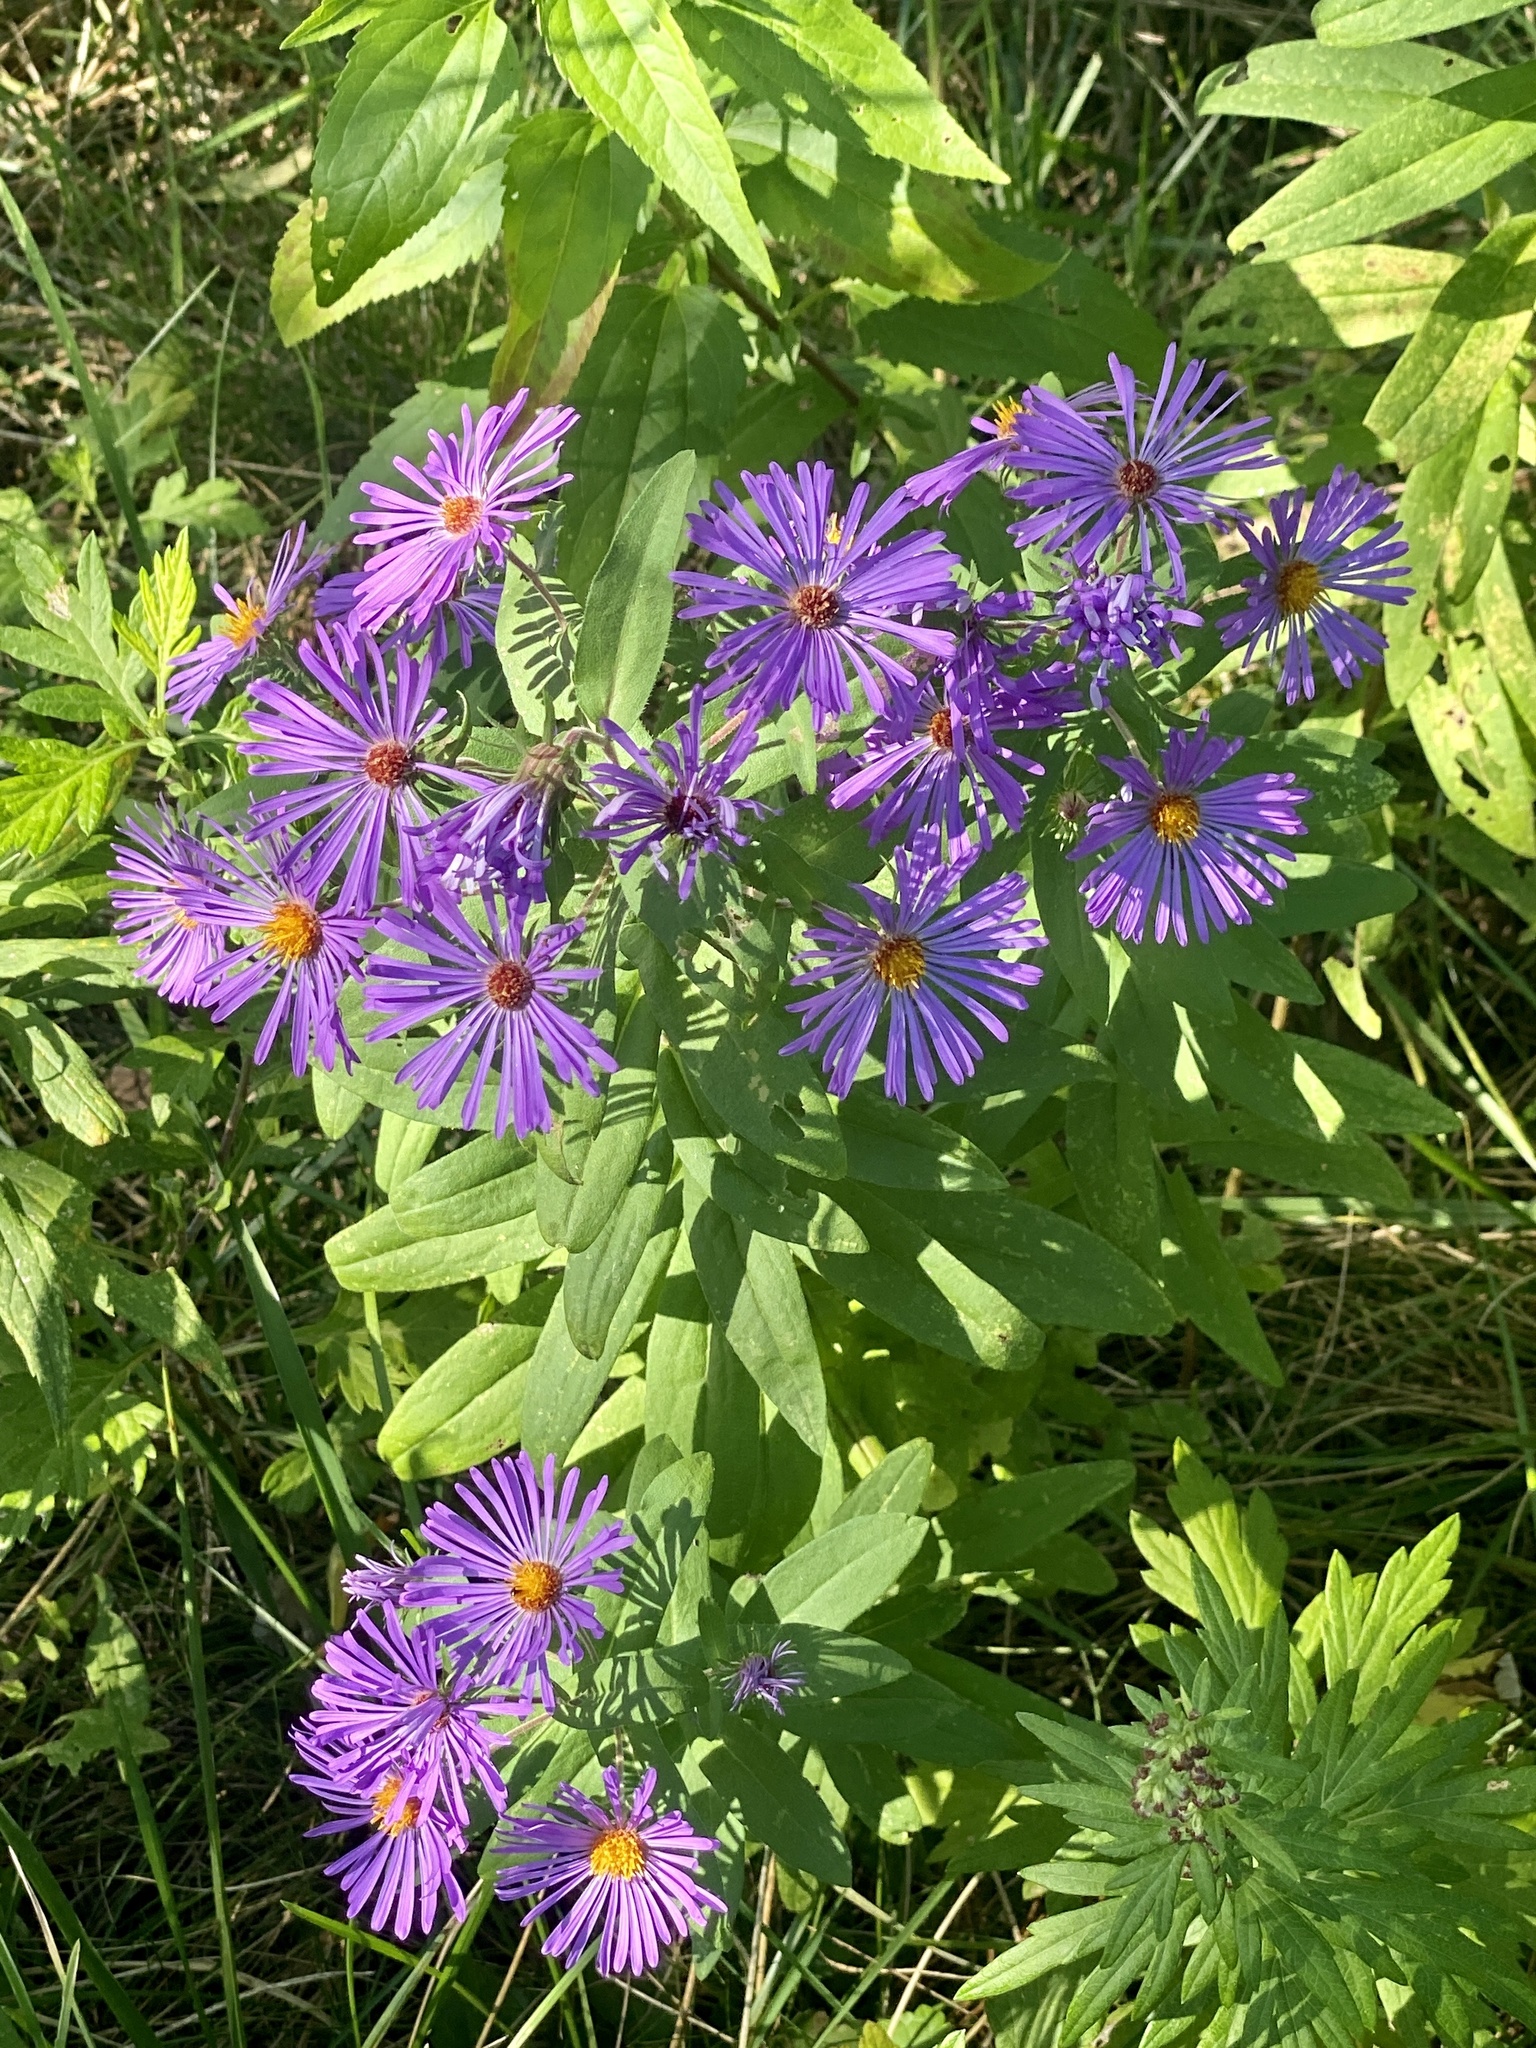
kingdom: Plantae
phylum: Tracheophyta
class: Magnoliopsida
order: Asterales
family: Asteraceae
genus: Symphyotrichum
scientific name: Symphyotrichum novae-angliae
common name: Michaelmas daisy
